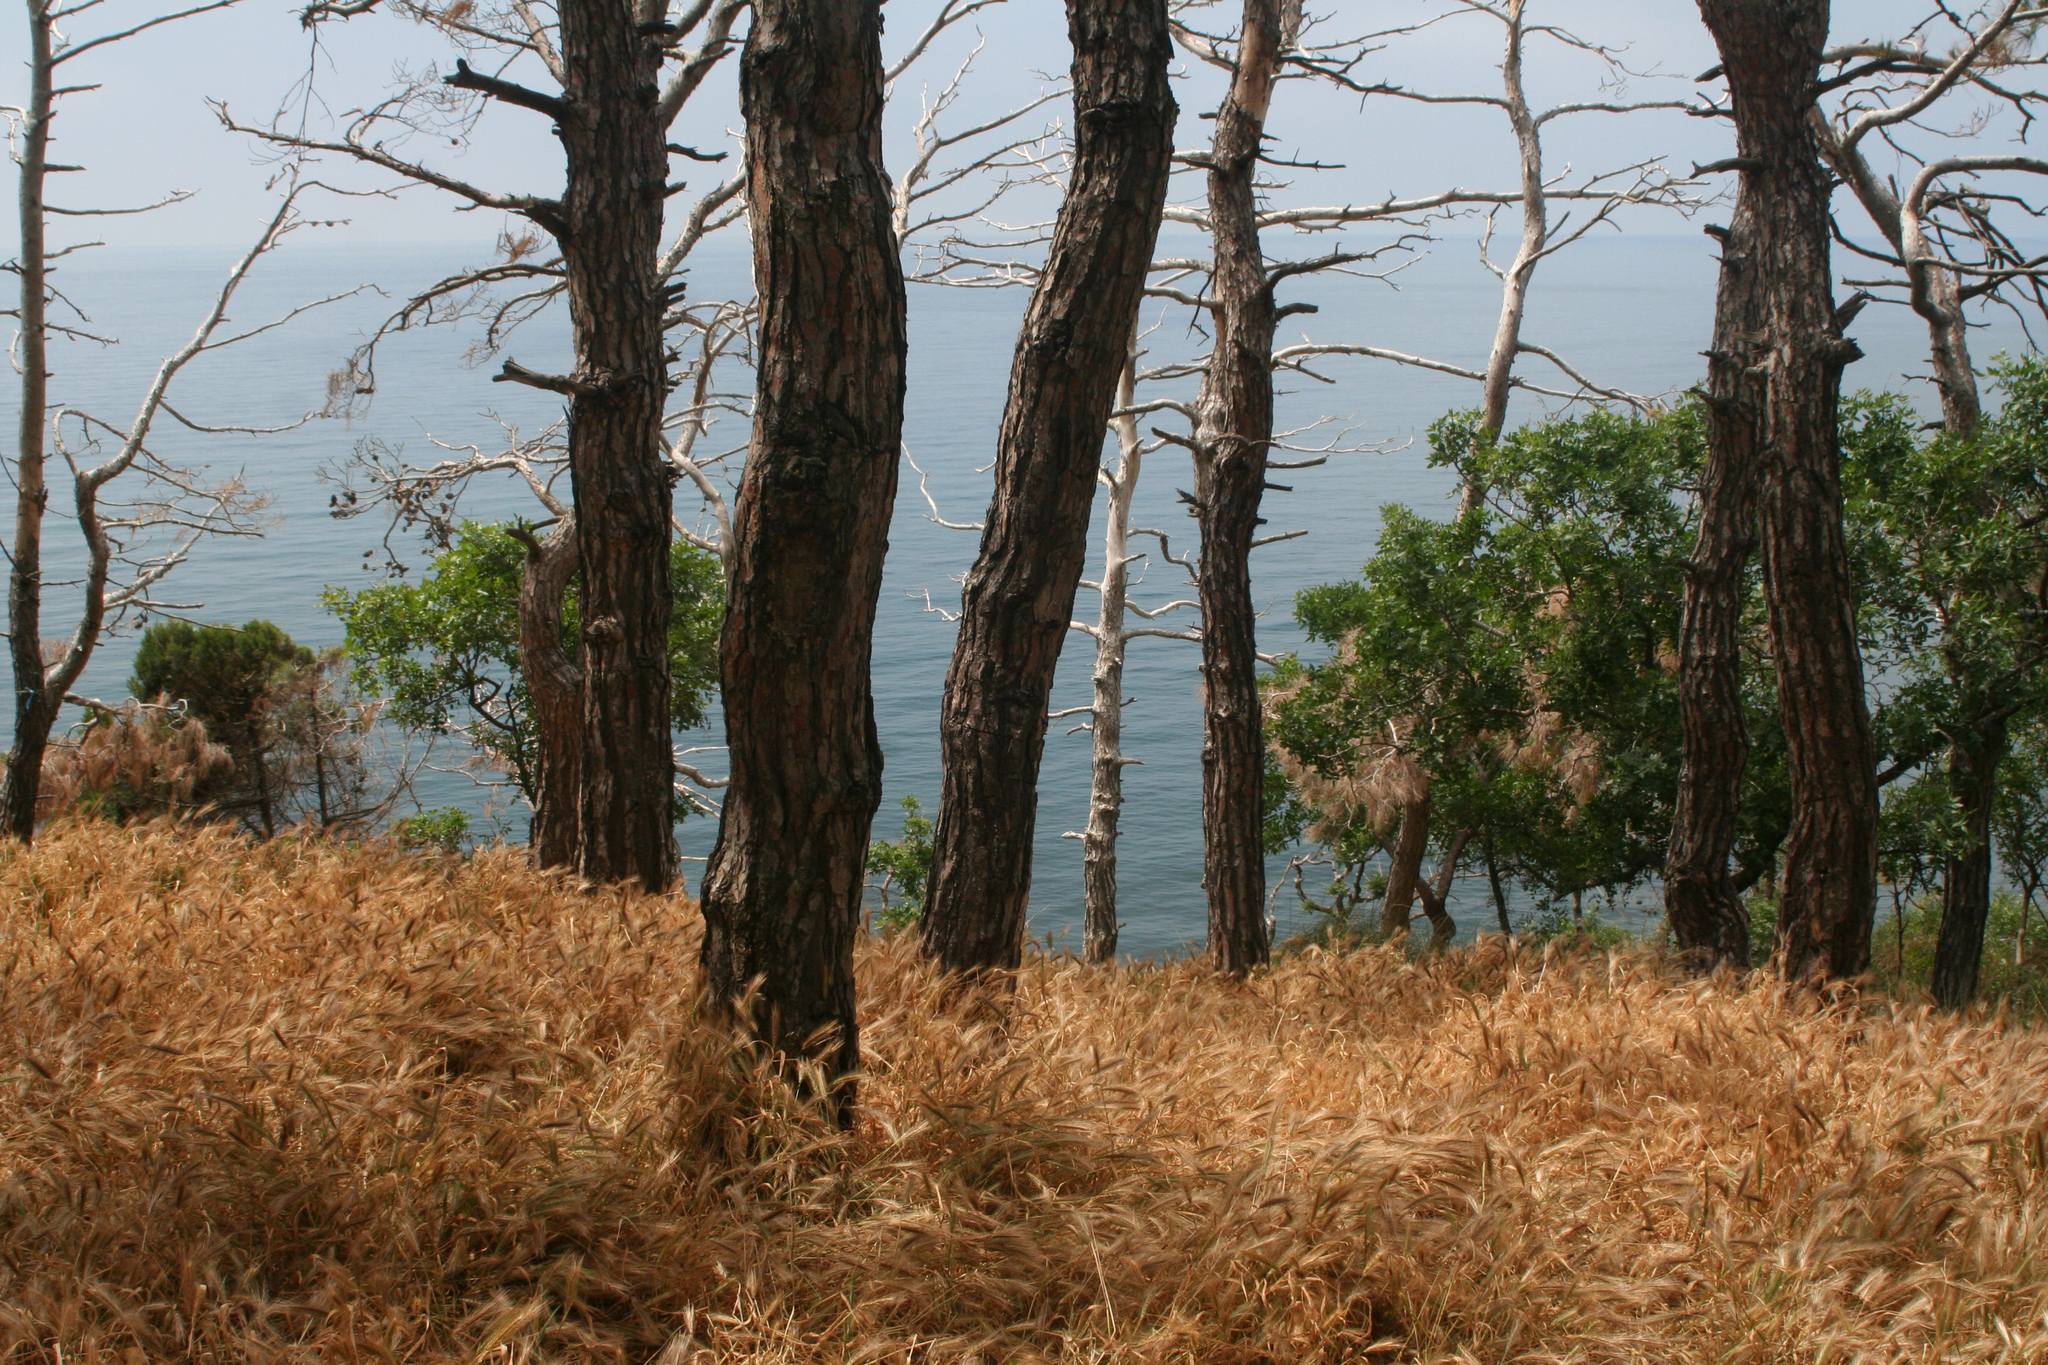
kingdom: Plantae
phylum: Tracheophyta
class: Liliopsida
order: Poales
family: Poaceae
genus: Hordeum
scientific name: Hordeum murinum
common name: Wall barley
